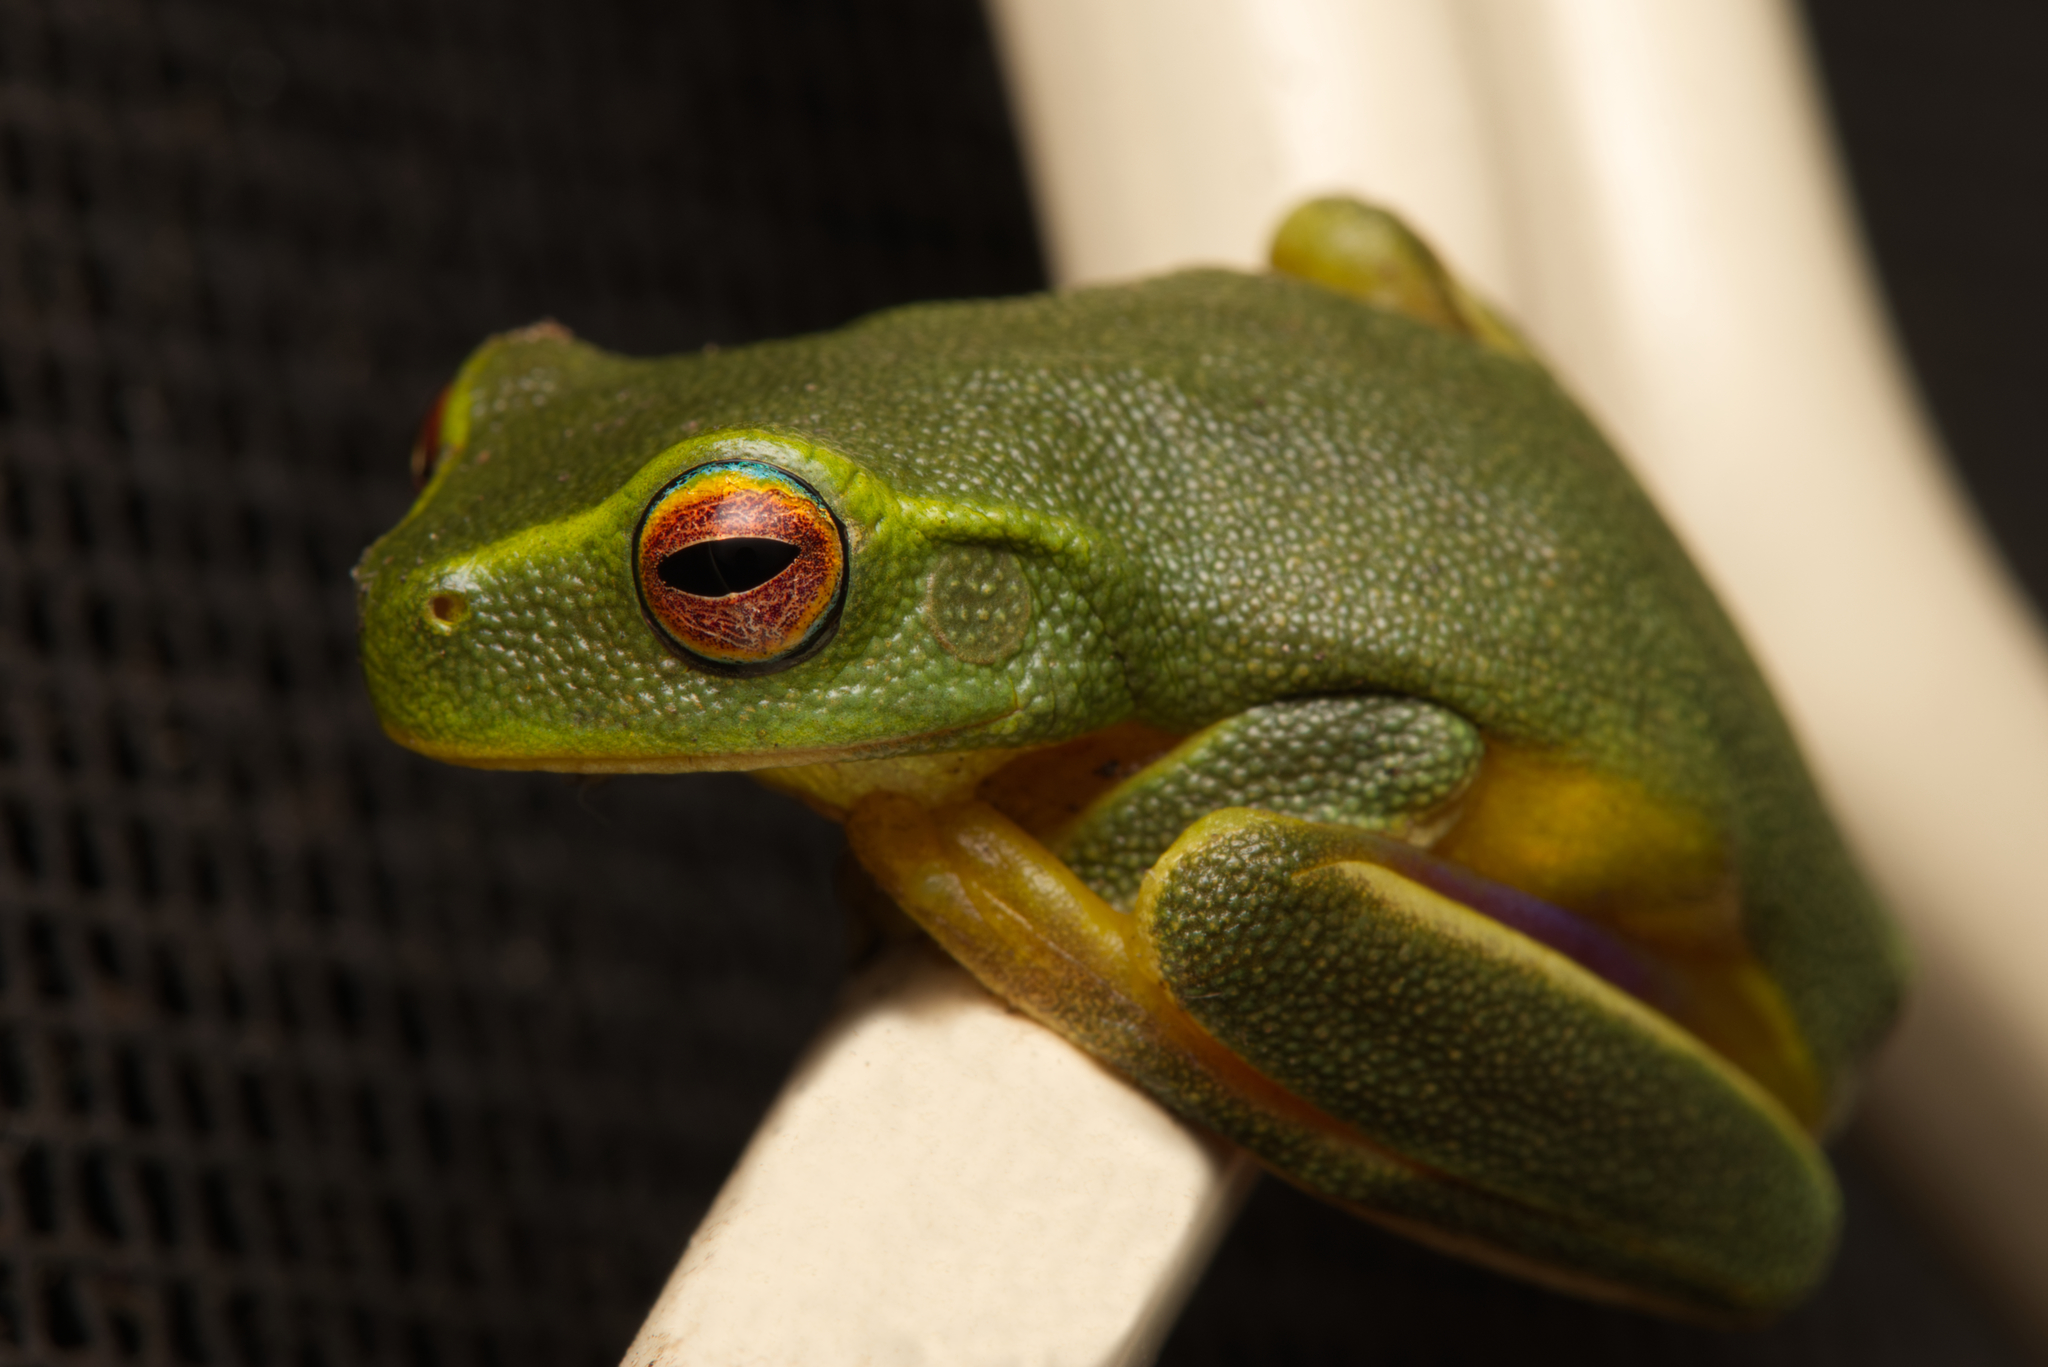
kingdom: Animalia
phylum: Chordata
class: Amphibia
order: Anura
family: Pelodryadidae
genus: Ranoidea
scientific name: Ranoidea gracilenta
